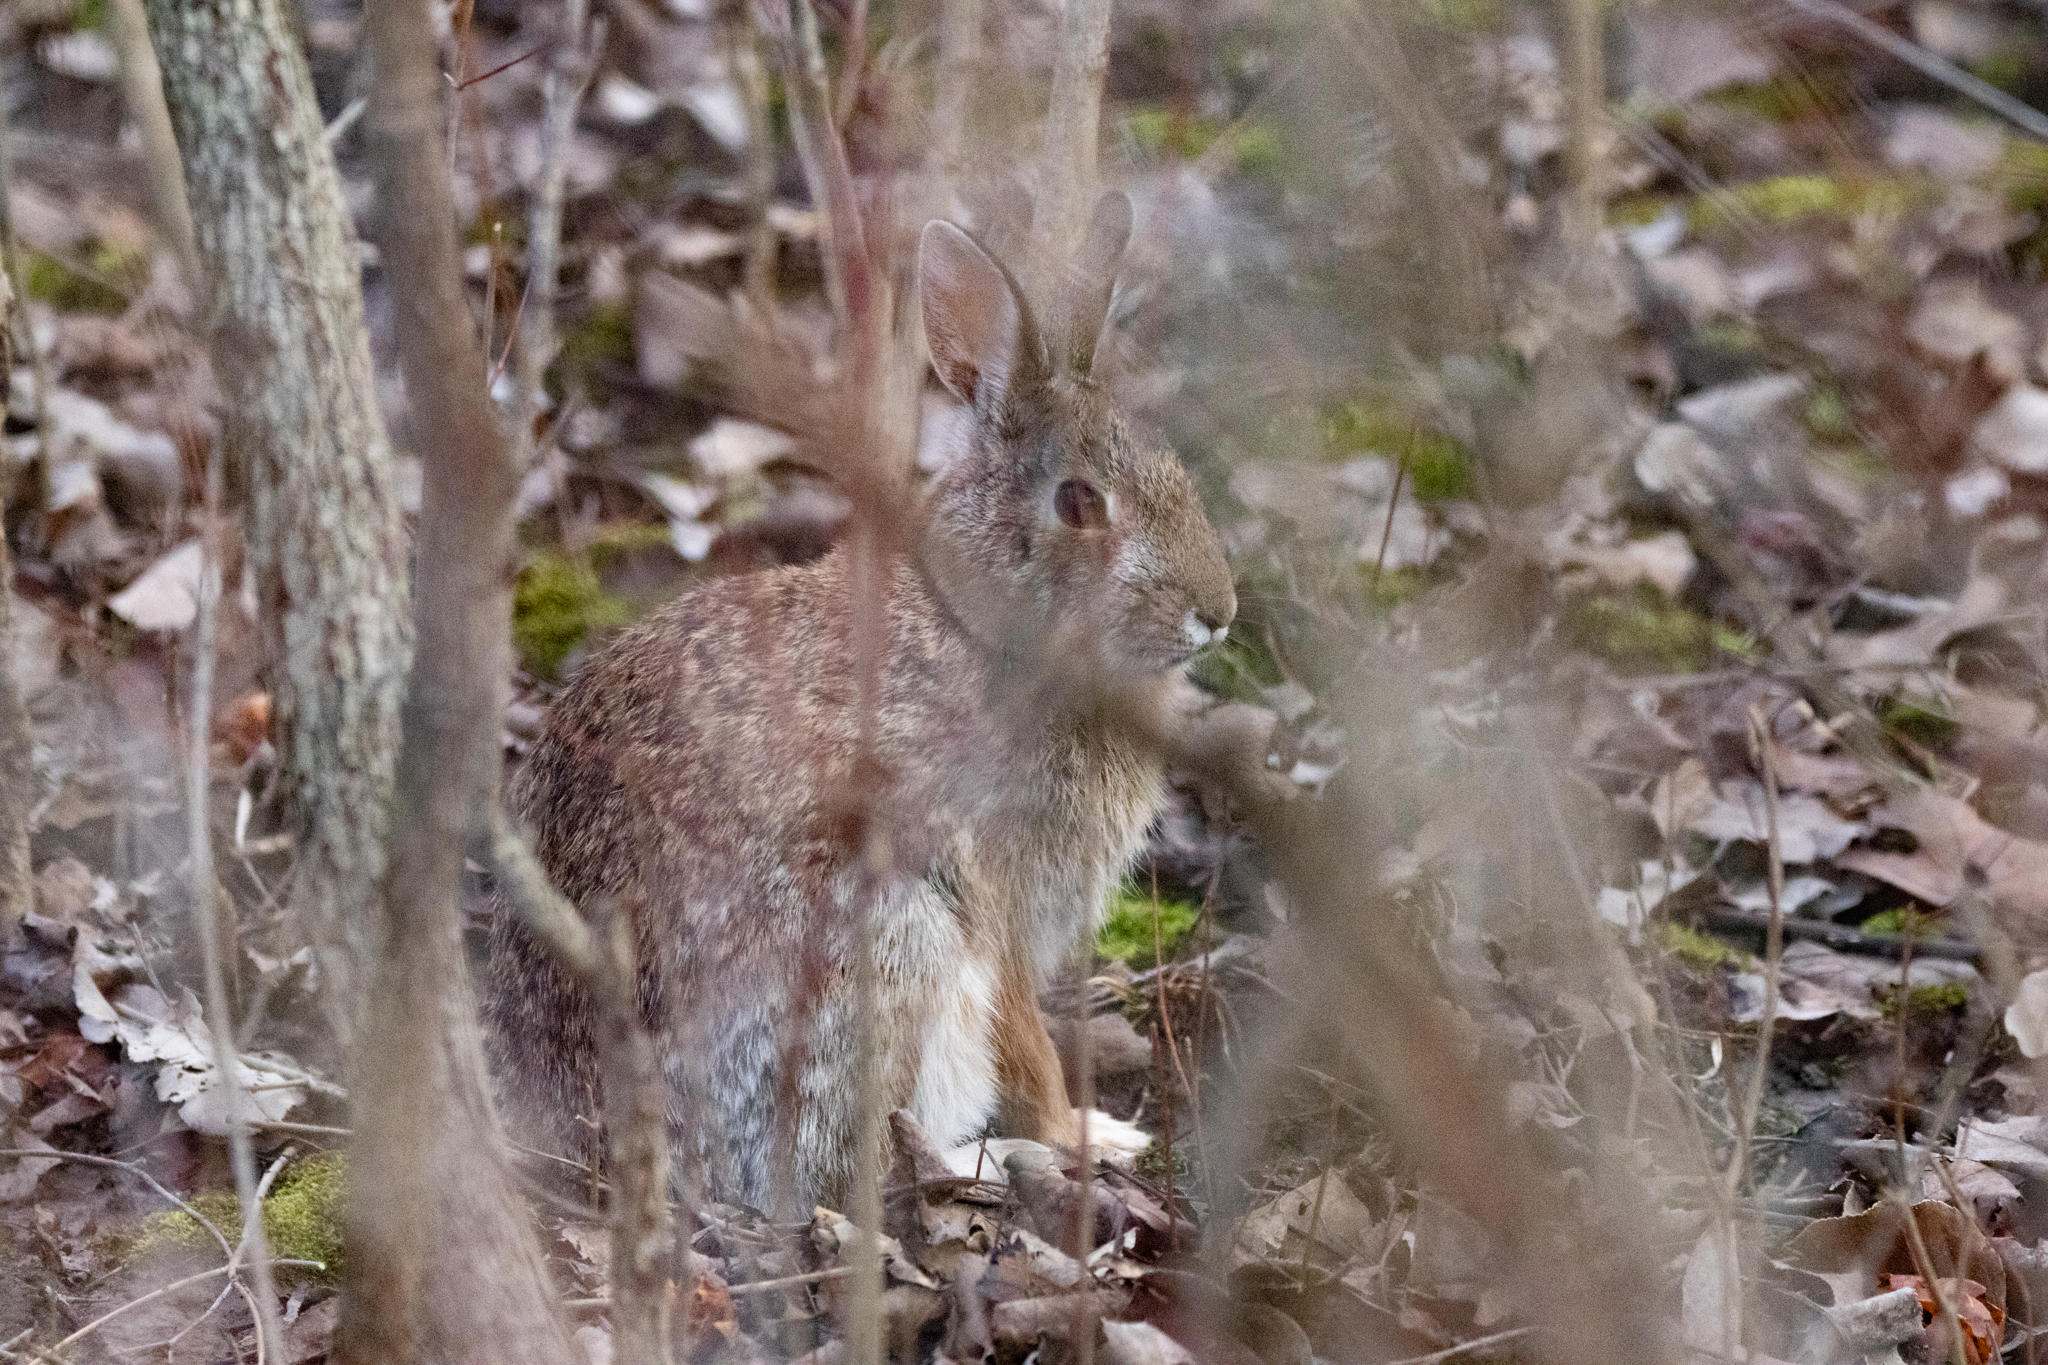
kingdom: Animalia
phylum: Chordata
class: Mammalia
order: Lagomorpha
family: Leporidae
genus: Sylvilagus
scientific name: Sylvilagus floridanus
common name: Eastern cottontail
